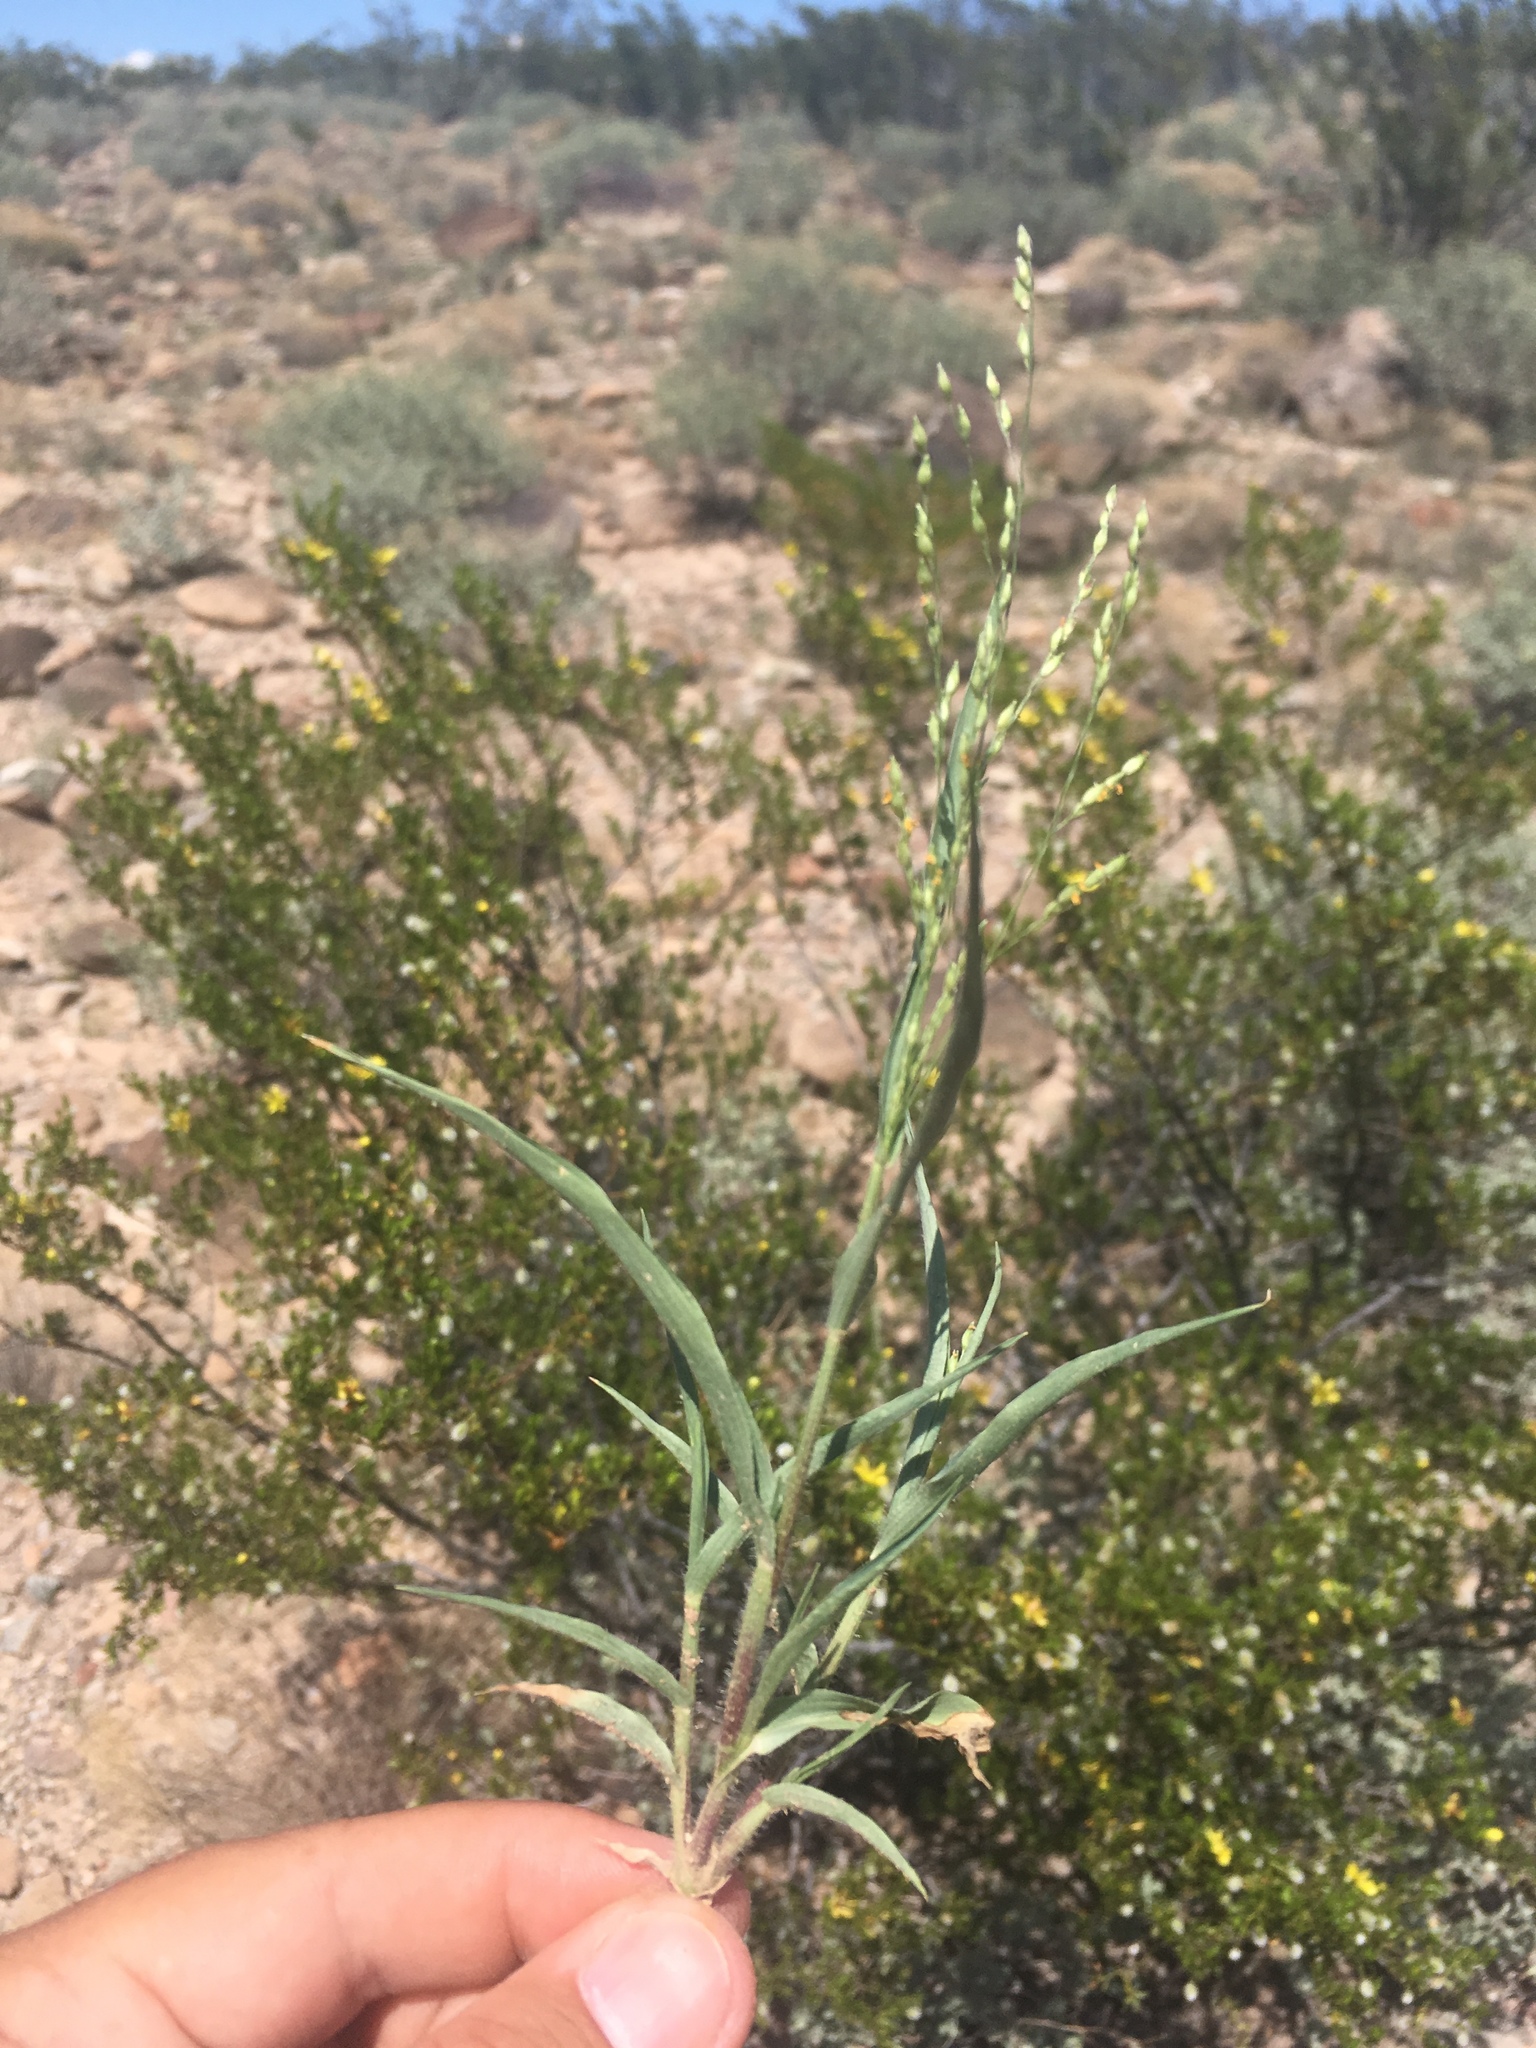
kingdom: Plantae
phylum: Tracheophyta
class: Liliopsida
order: Poales
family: Poaceae
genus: Panicum
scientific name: Panicum hirticaule
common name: Rough-stalk witchgrass
